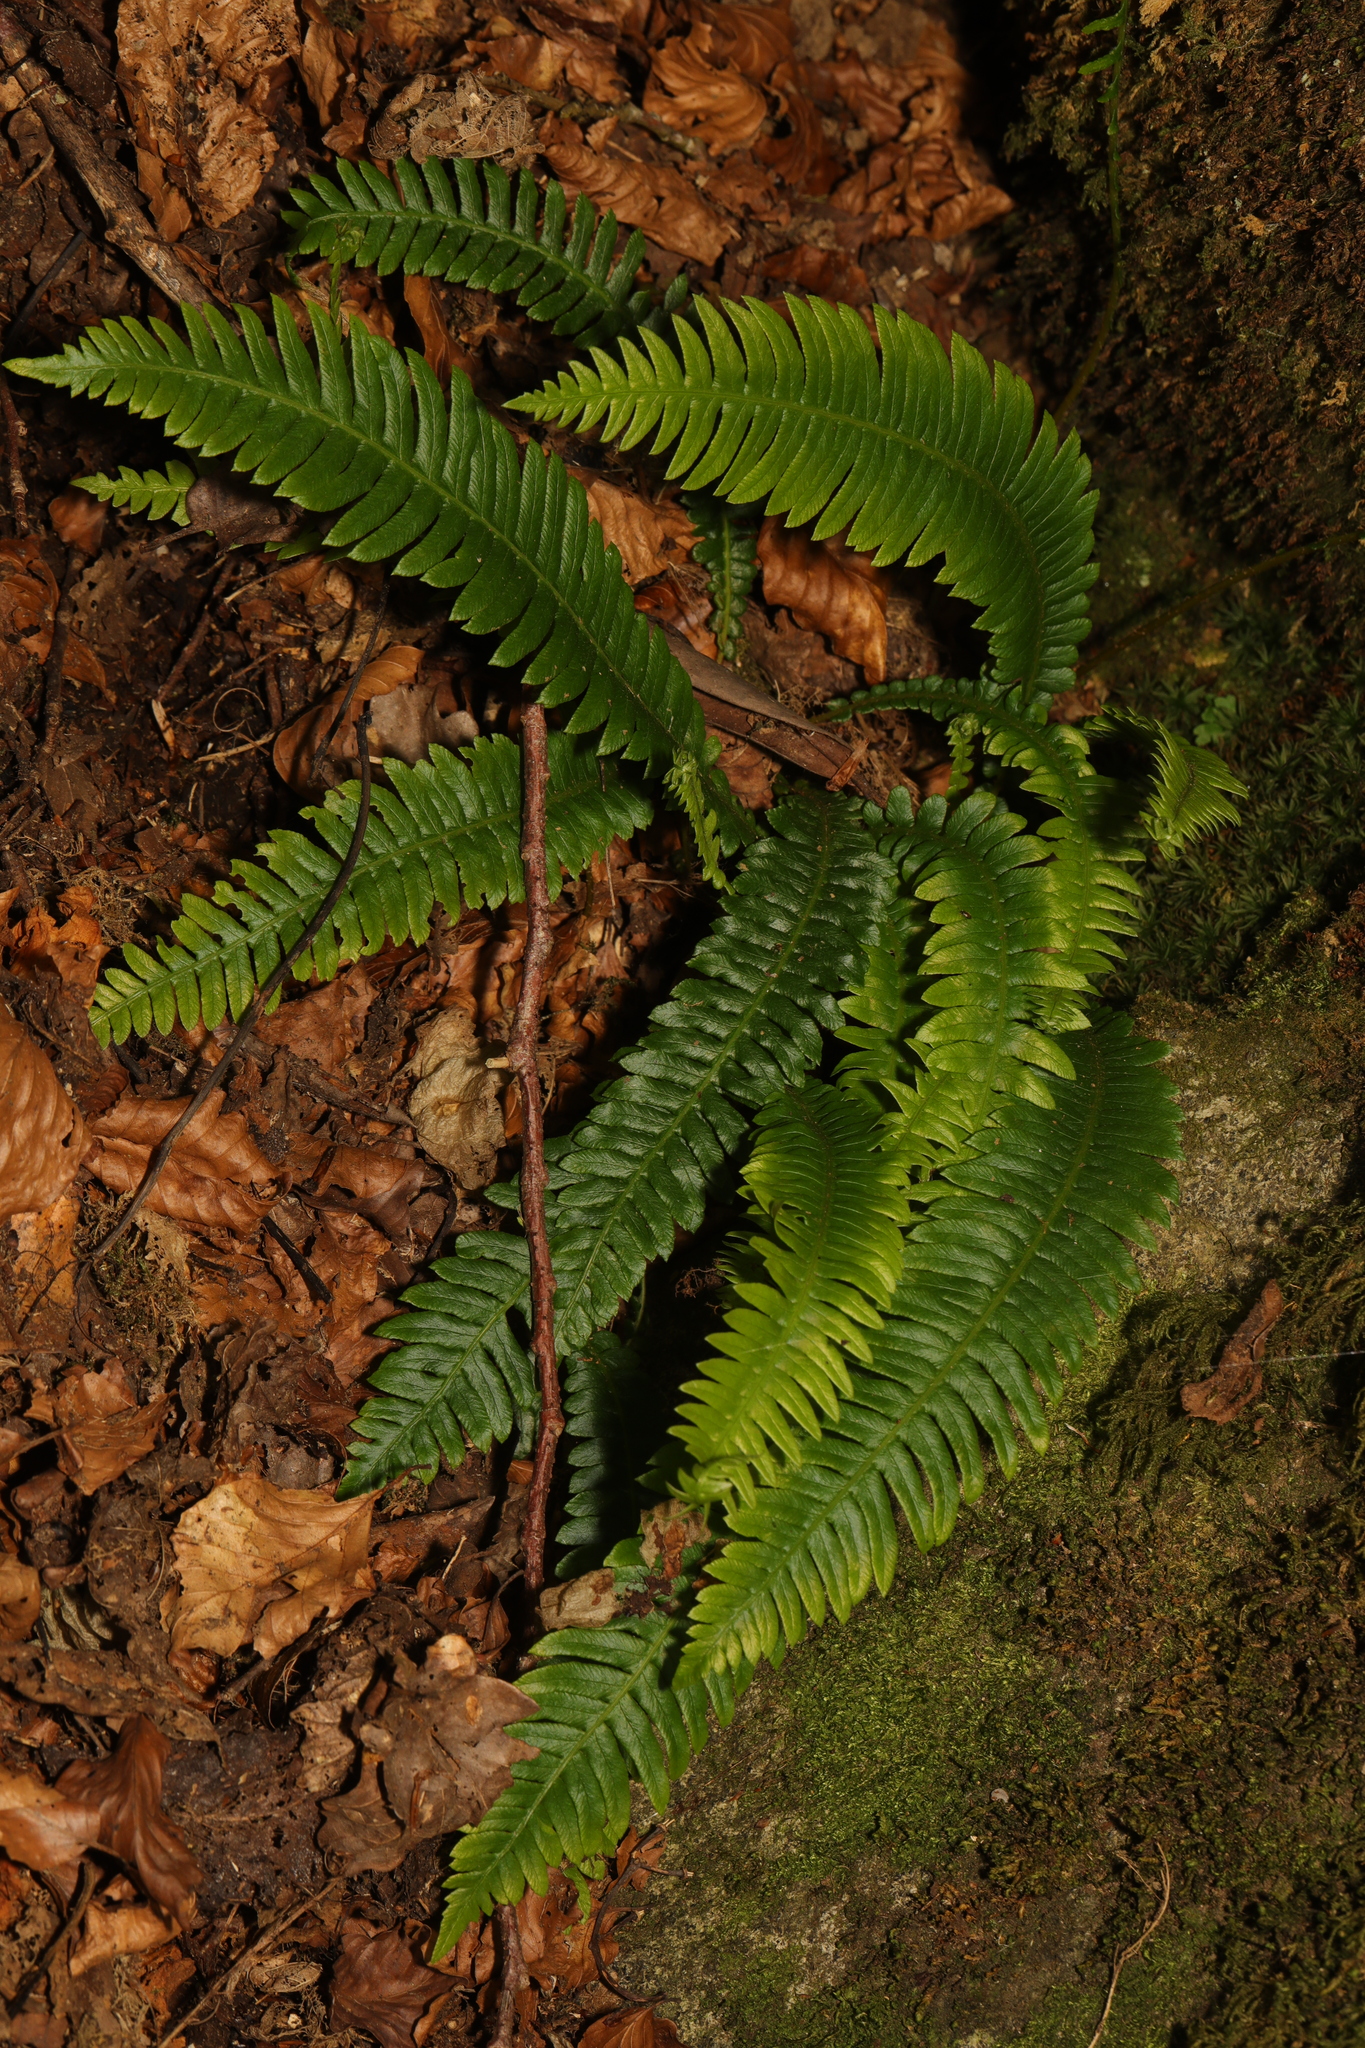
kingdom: Plantae
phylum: Tracheophyta
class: Polypodiopsida
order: Polypodiales
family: Blechnaceae
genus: Struthiopteris
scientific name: Struthiopteris spicant
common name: Deer fern
